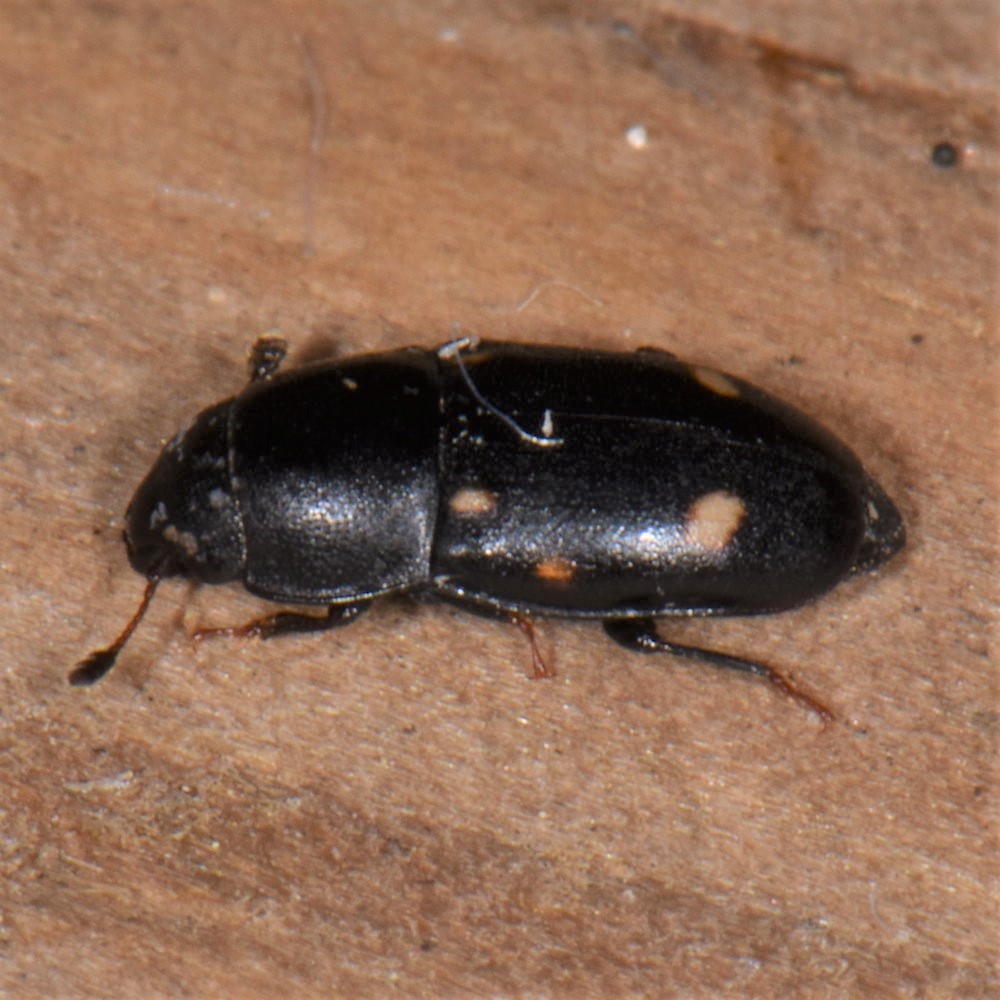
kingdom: Animalia
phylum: Arthropoda
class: Insecta
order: Coleoptera
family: Nitidulidae
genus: Glischrochilus
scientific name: Glischrochilus siepmanni
